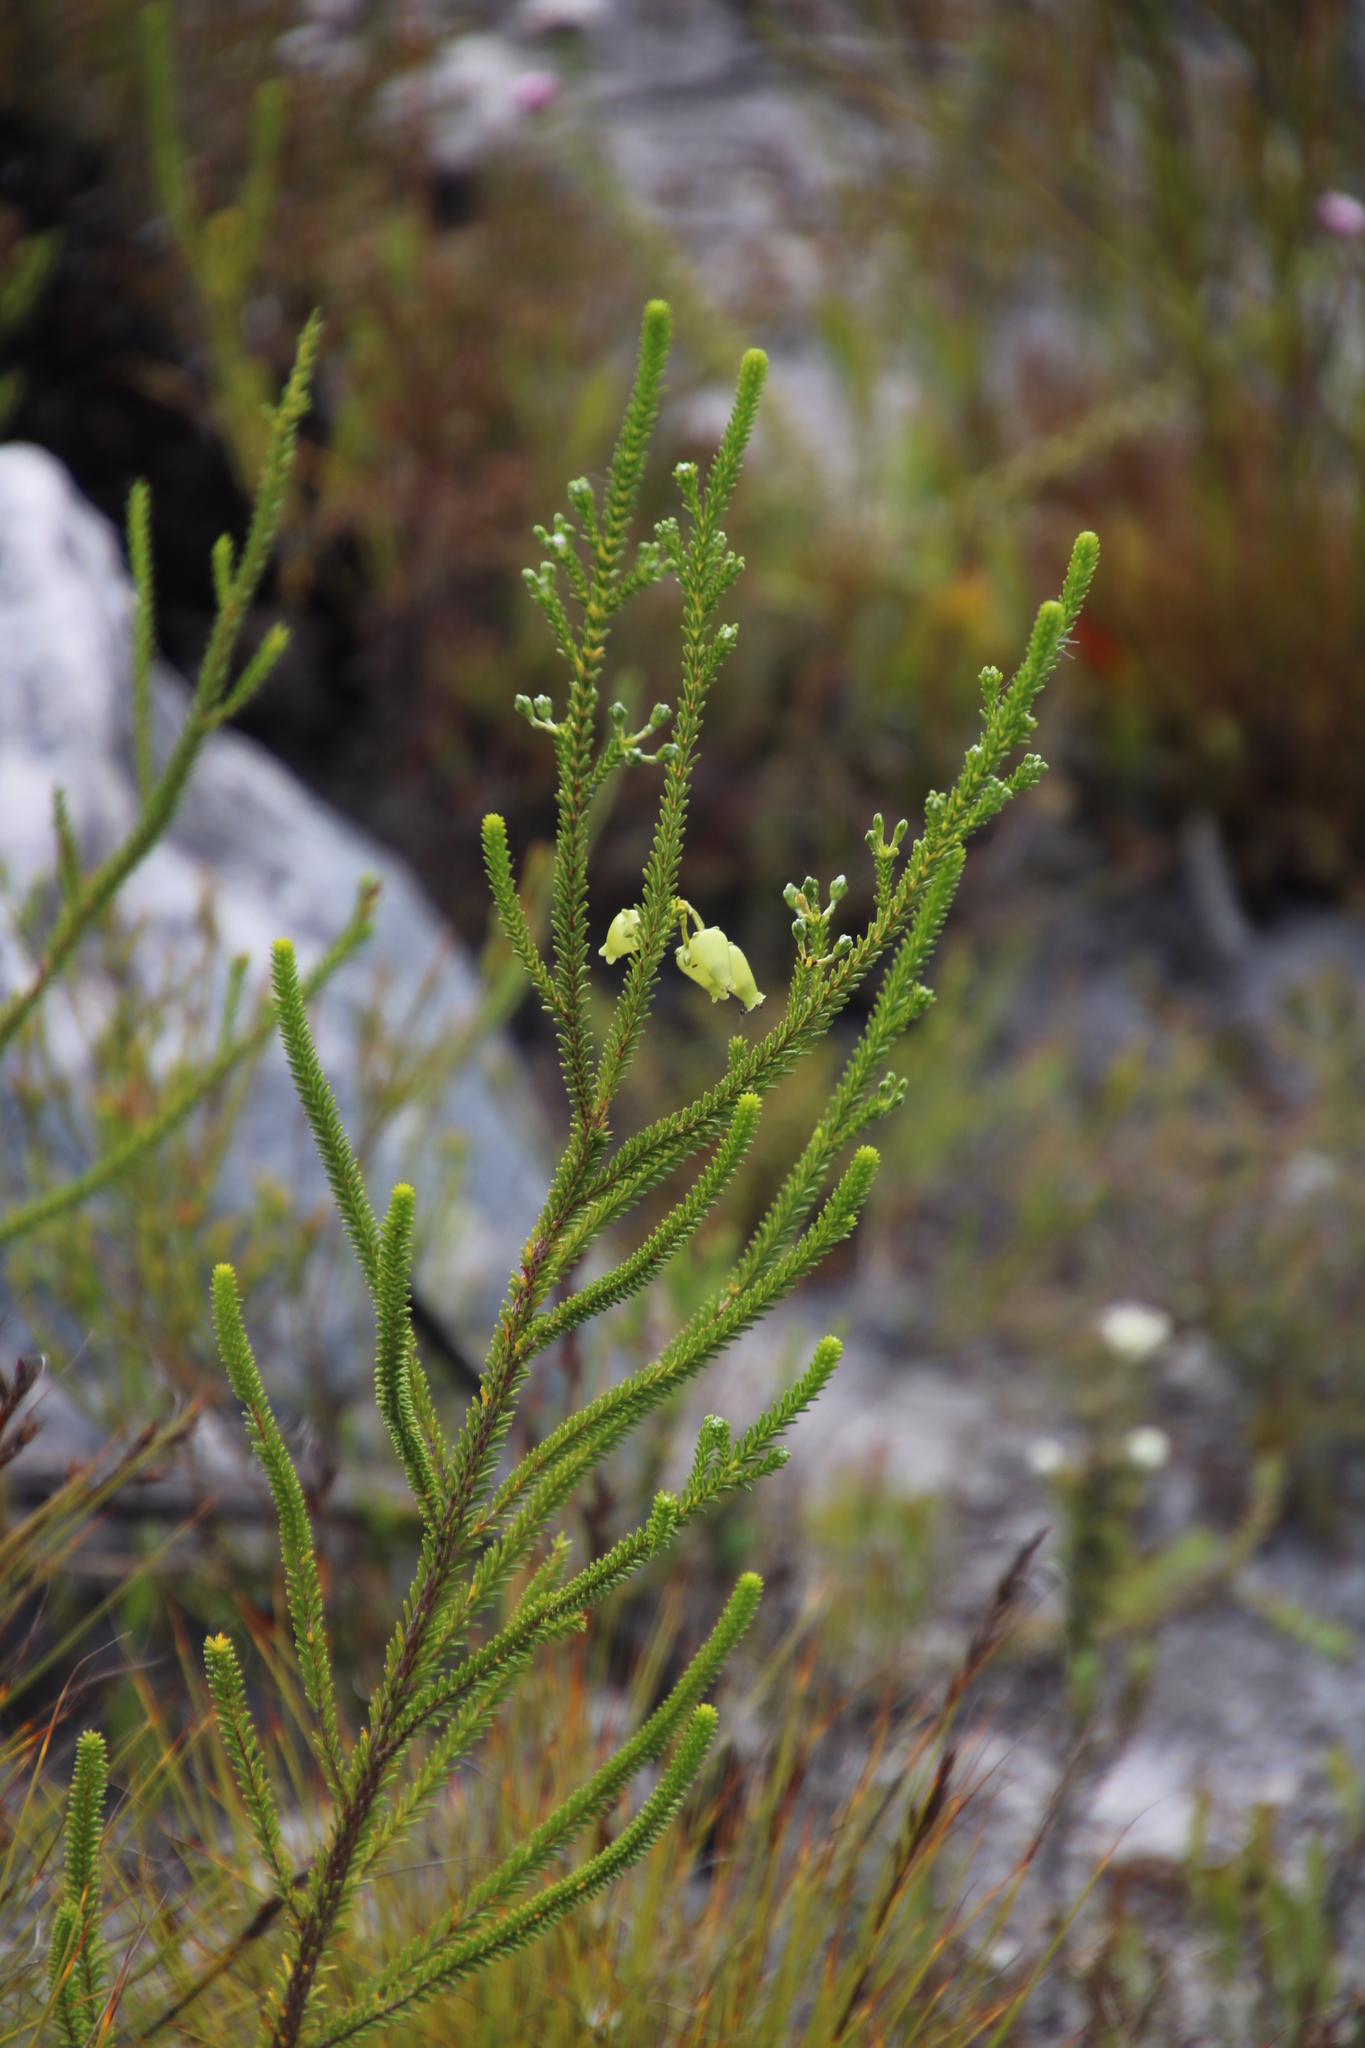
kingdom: Plantae
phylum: Tracheophyta
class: Magnoliopsida
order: Ericales
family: Ericaceae
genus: Erica
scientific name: Erica urna-viridis
